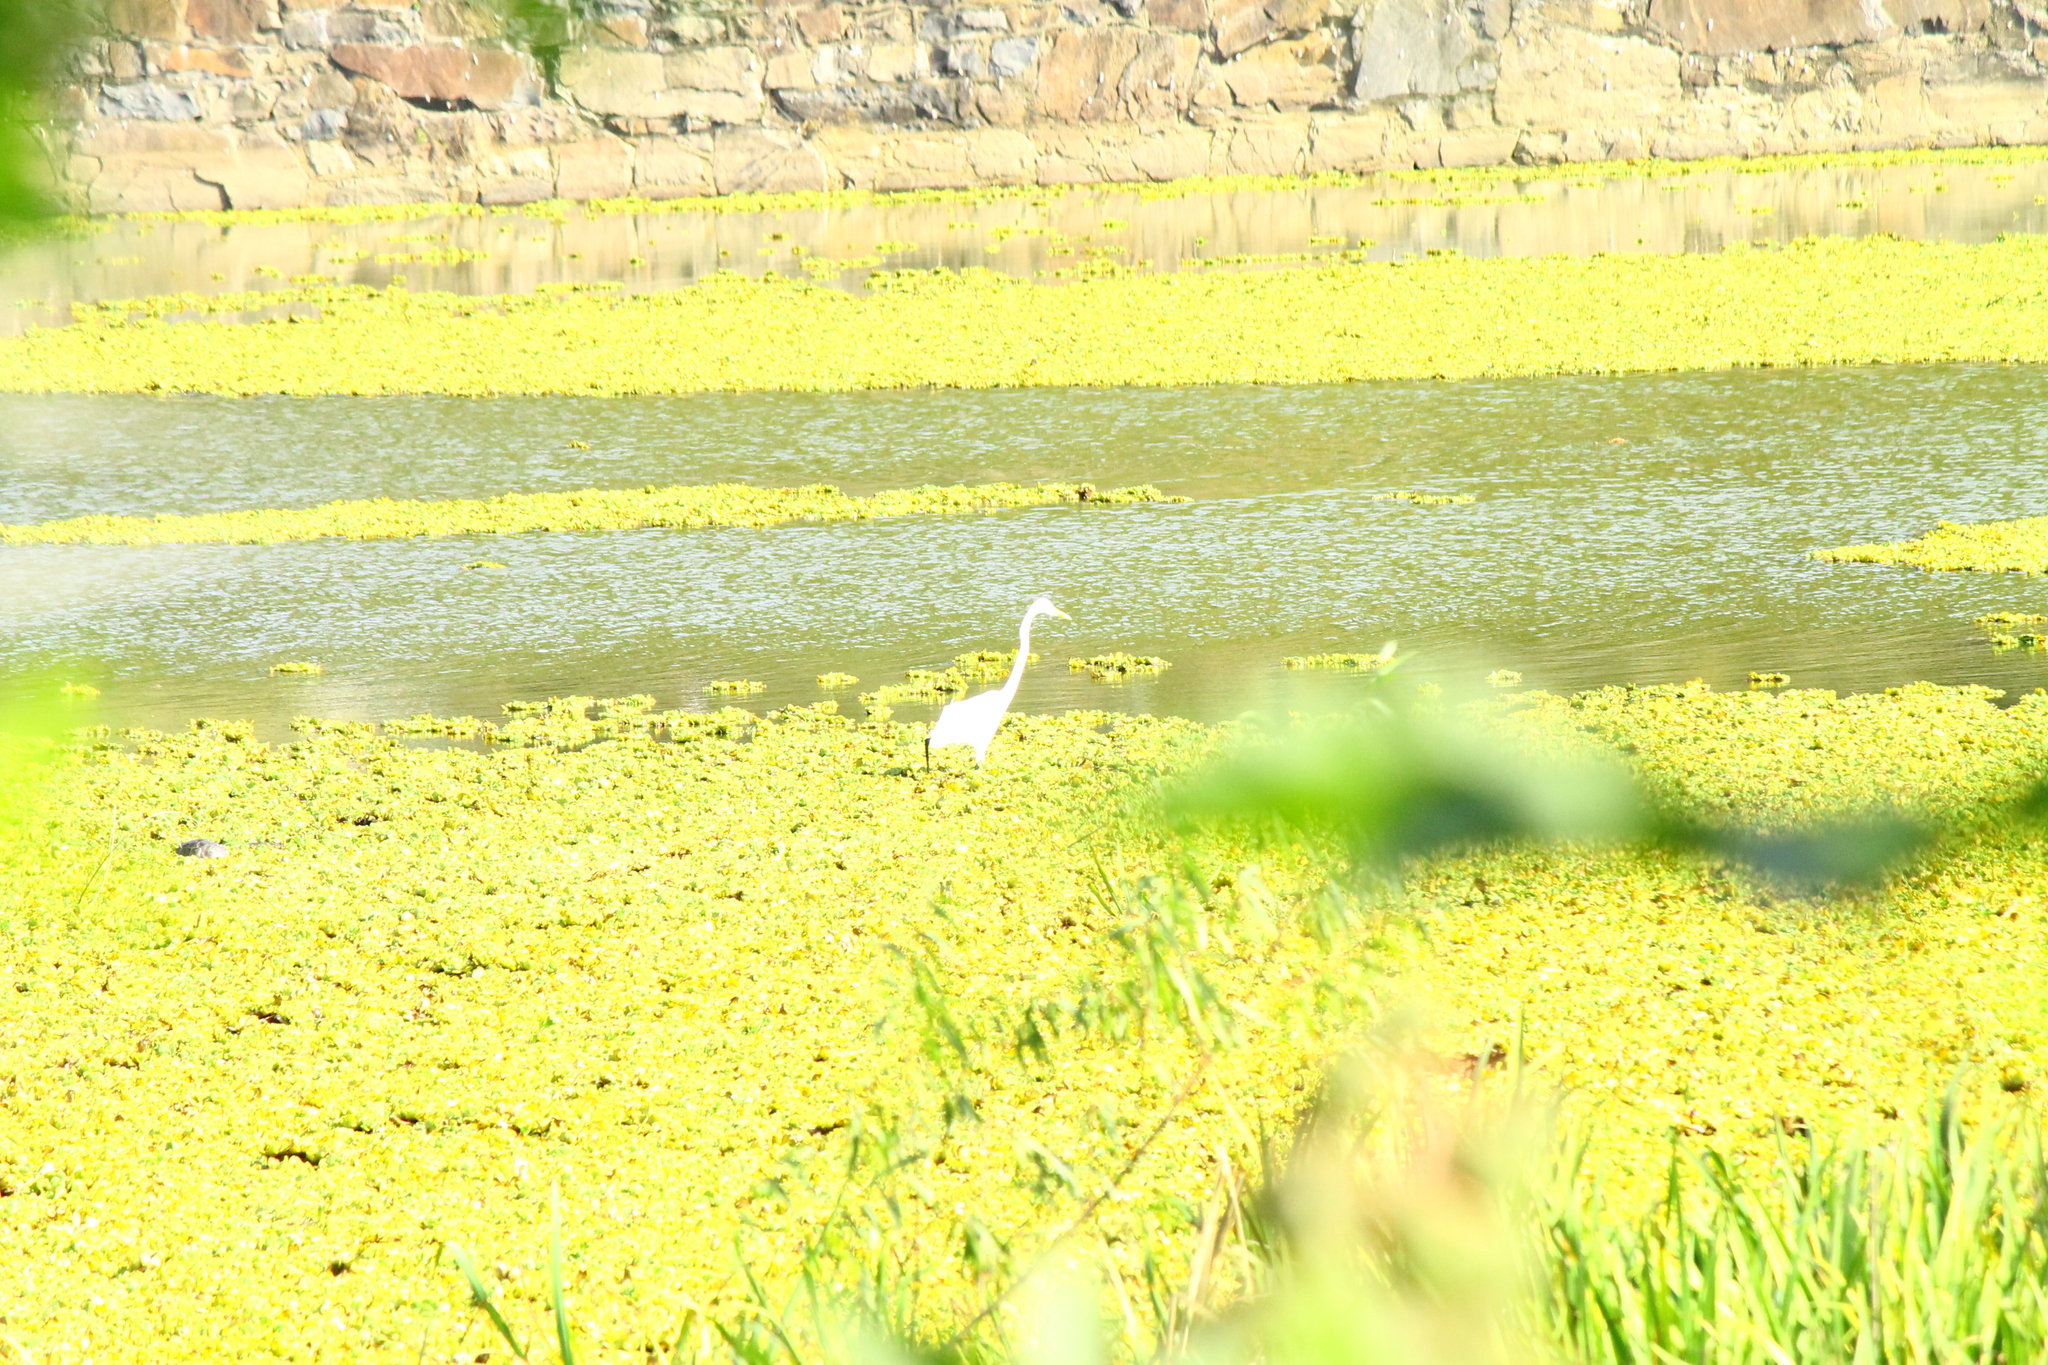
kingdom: Animalia
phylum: Chordata
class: Aves
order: Pelecaniformes
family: Ardeidae
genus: Ardea
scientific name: Ardea alba
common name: Great egret
